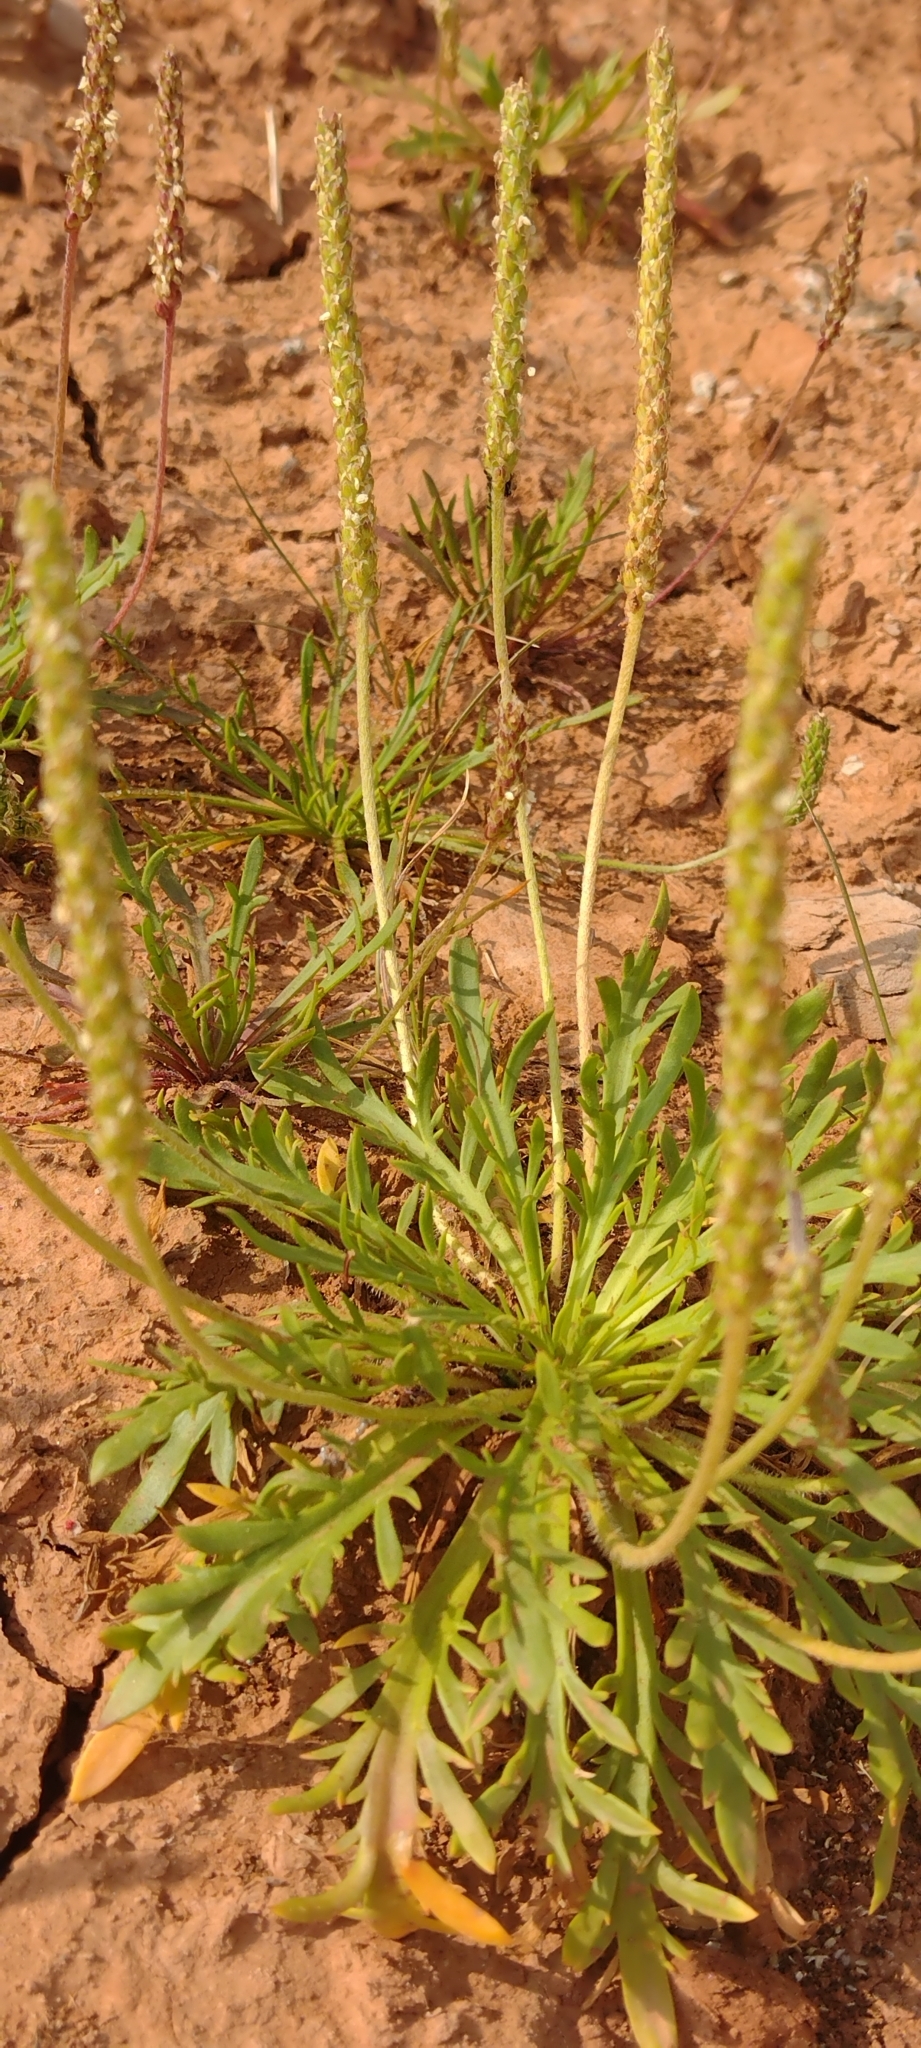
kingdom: Plantae
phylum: Tracheophyta
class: Magnoliopsida
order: Lamiales
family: Plantaginaceae
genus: Plantago
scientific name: Plantago coronopus
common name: Buck's-horn plantain
